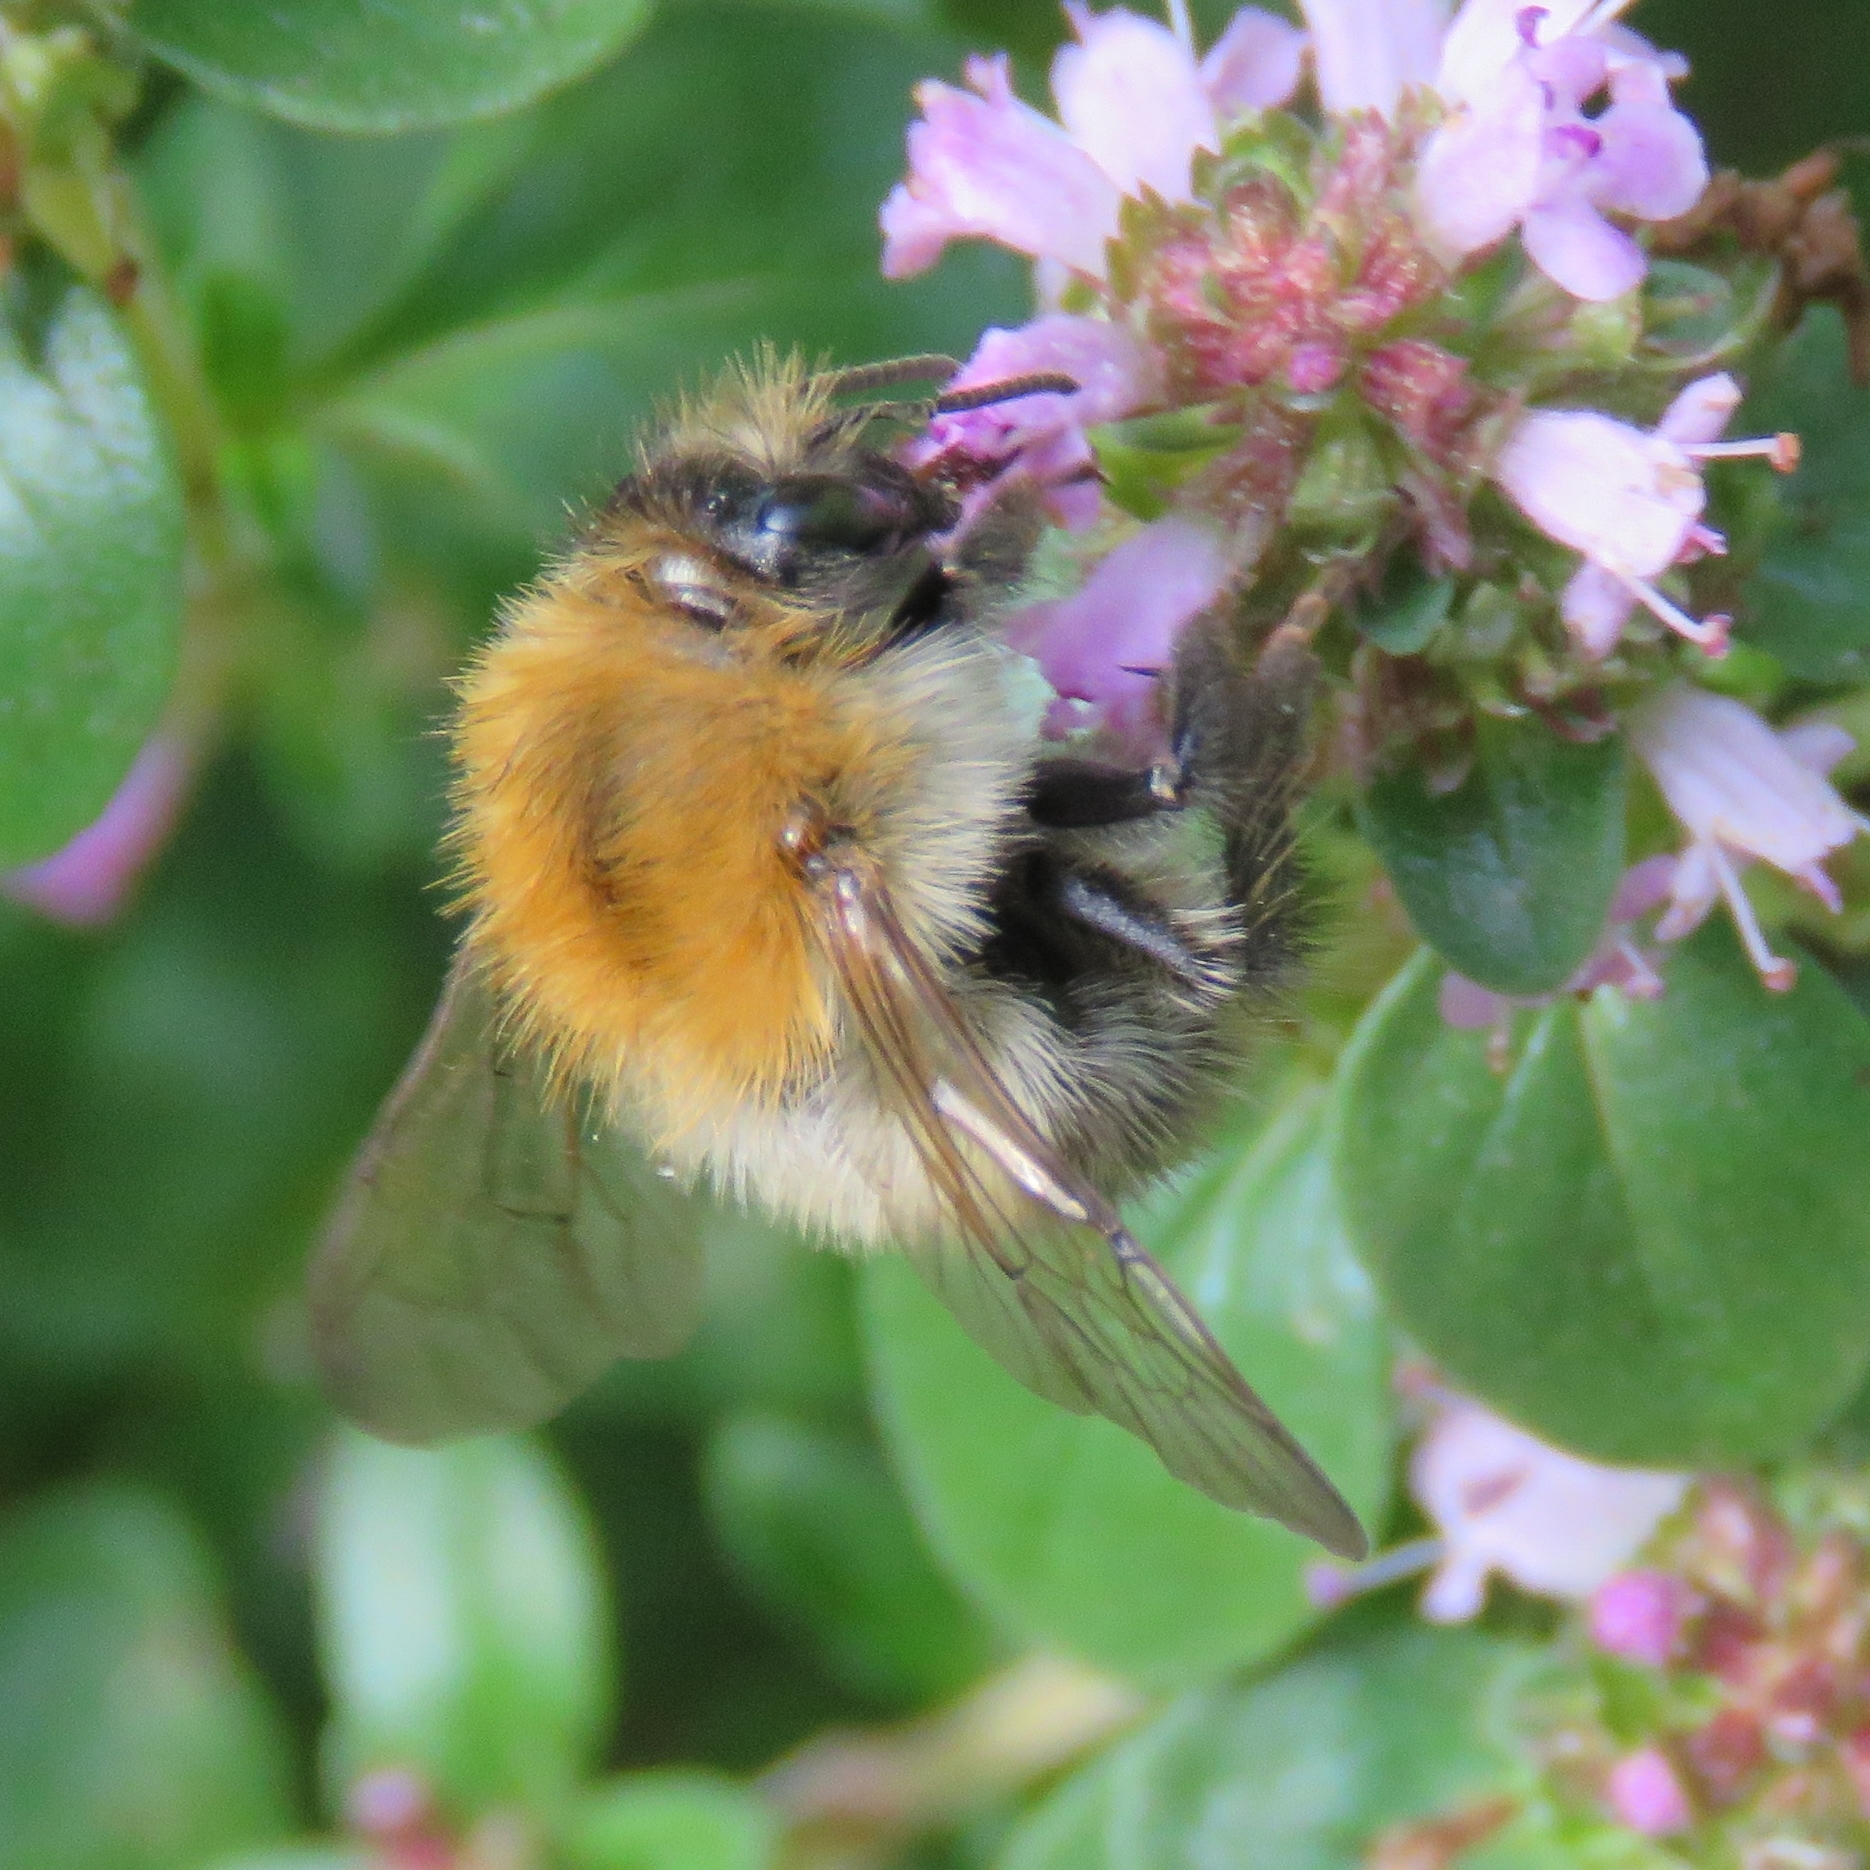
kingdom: Animalia
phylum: Arthropoda
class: Insecta
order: Hymenoptera
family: Apidae
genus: Bombus
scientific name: Bombus pascuorum
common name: Common carder bee
